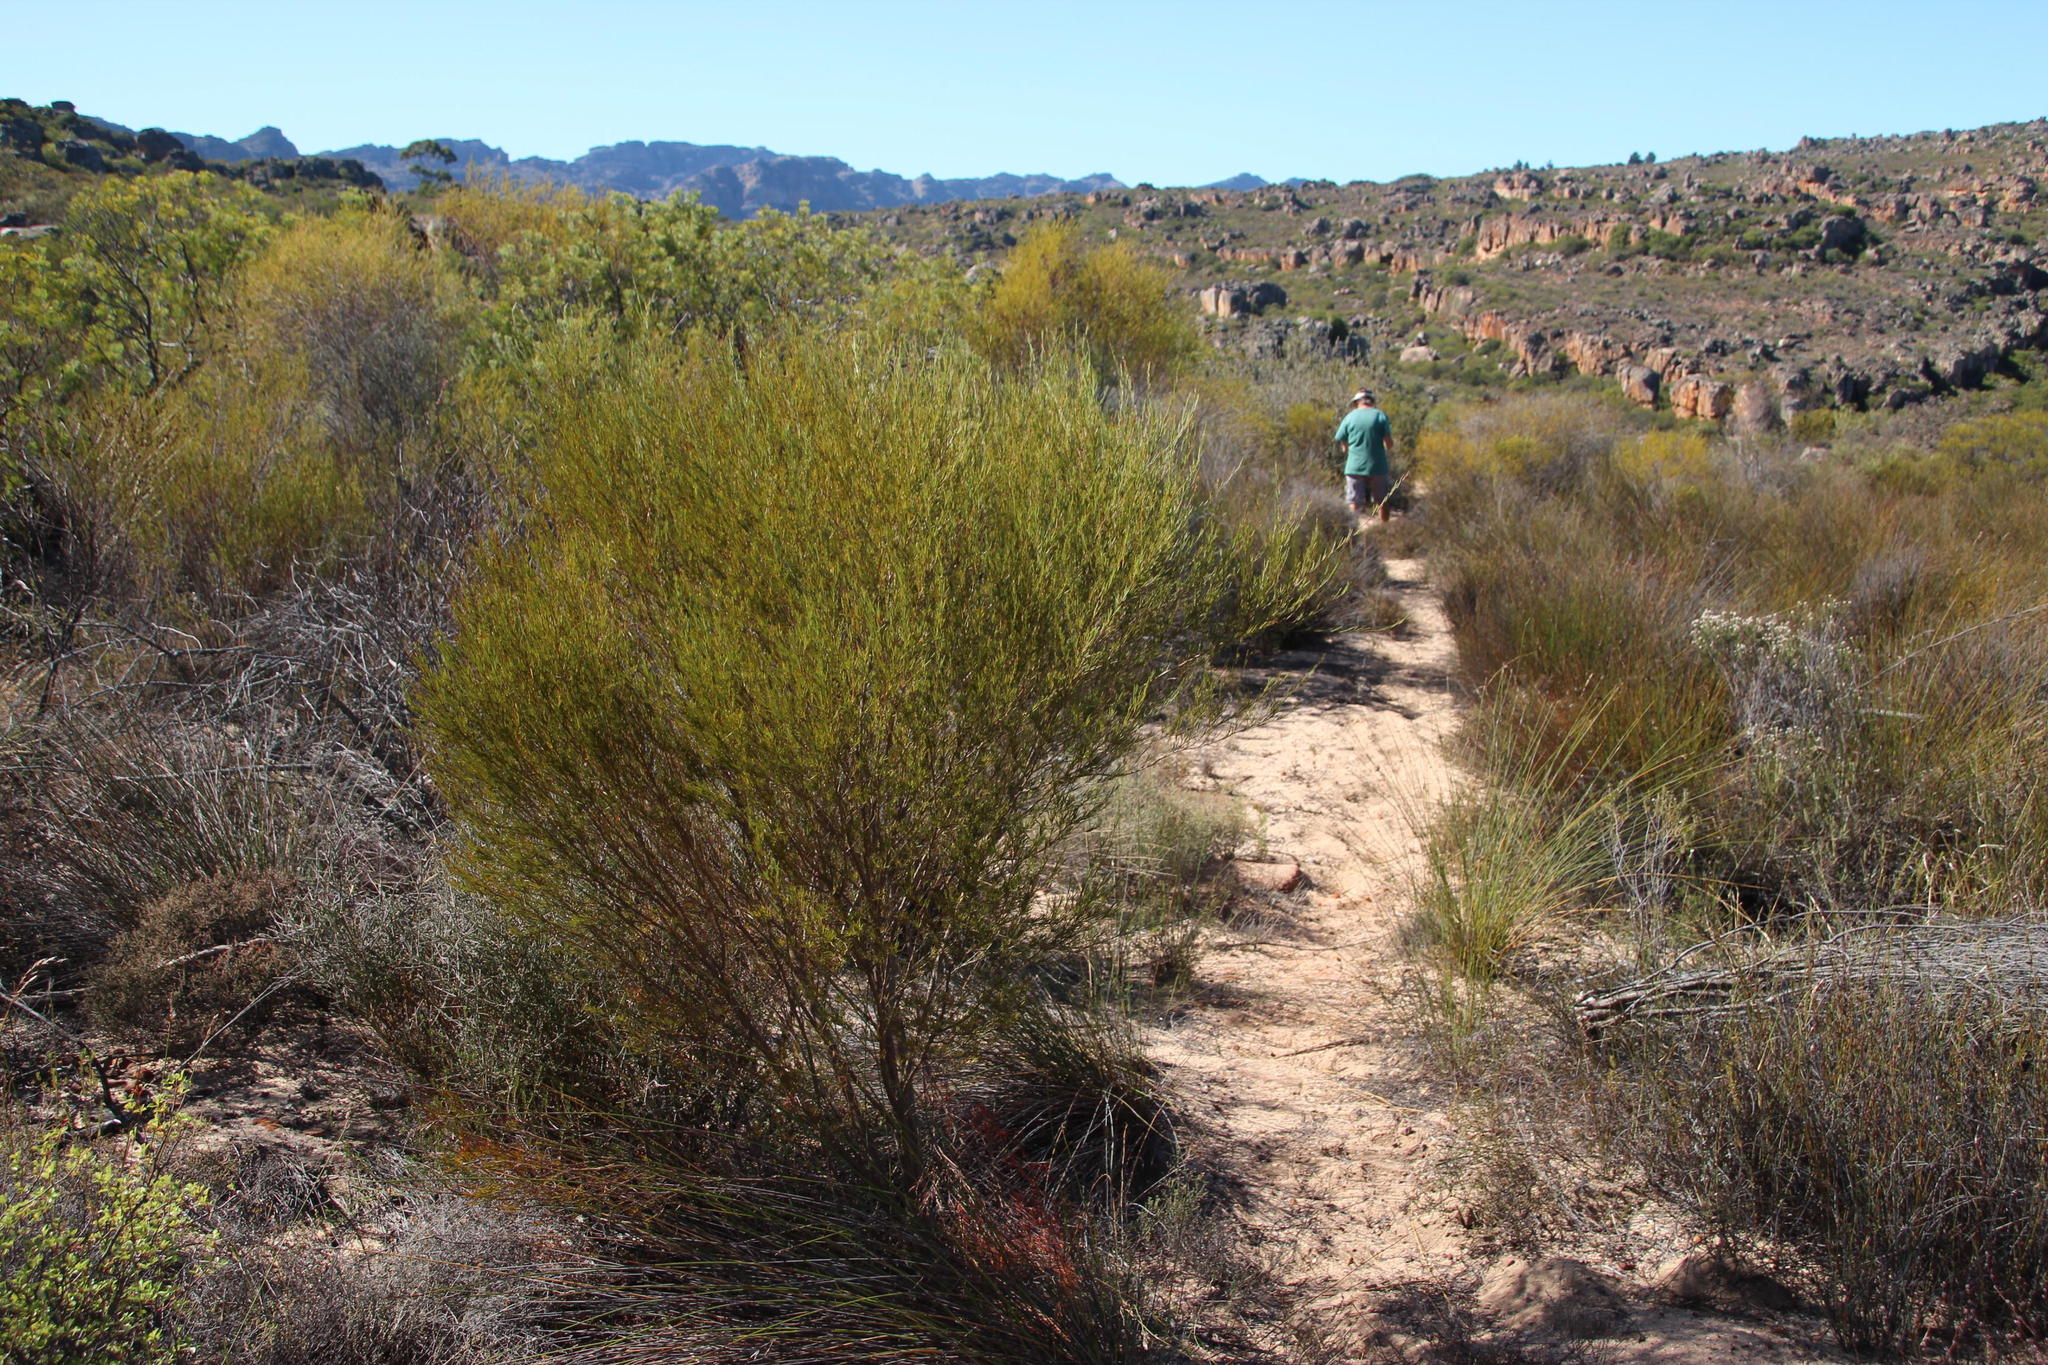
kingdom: Plantae
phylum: Tracheophyta
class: Magnoliopsida
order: Fabales
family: Fabaceae
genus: Aspalathus
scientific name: Aspalathus linearis
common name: Rooibos-tea
